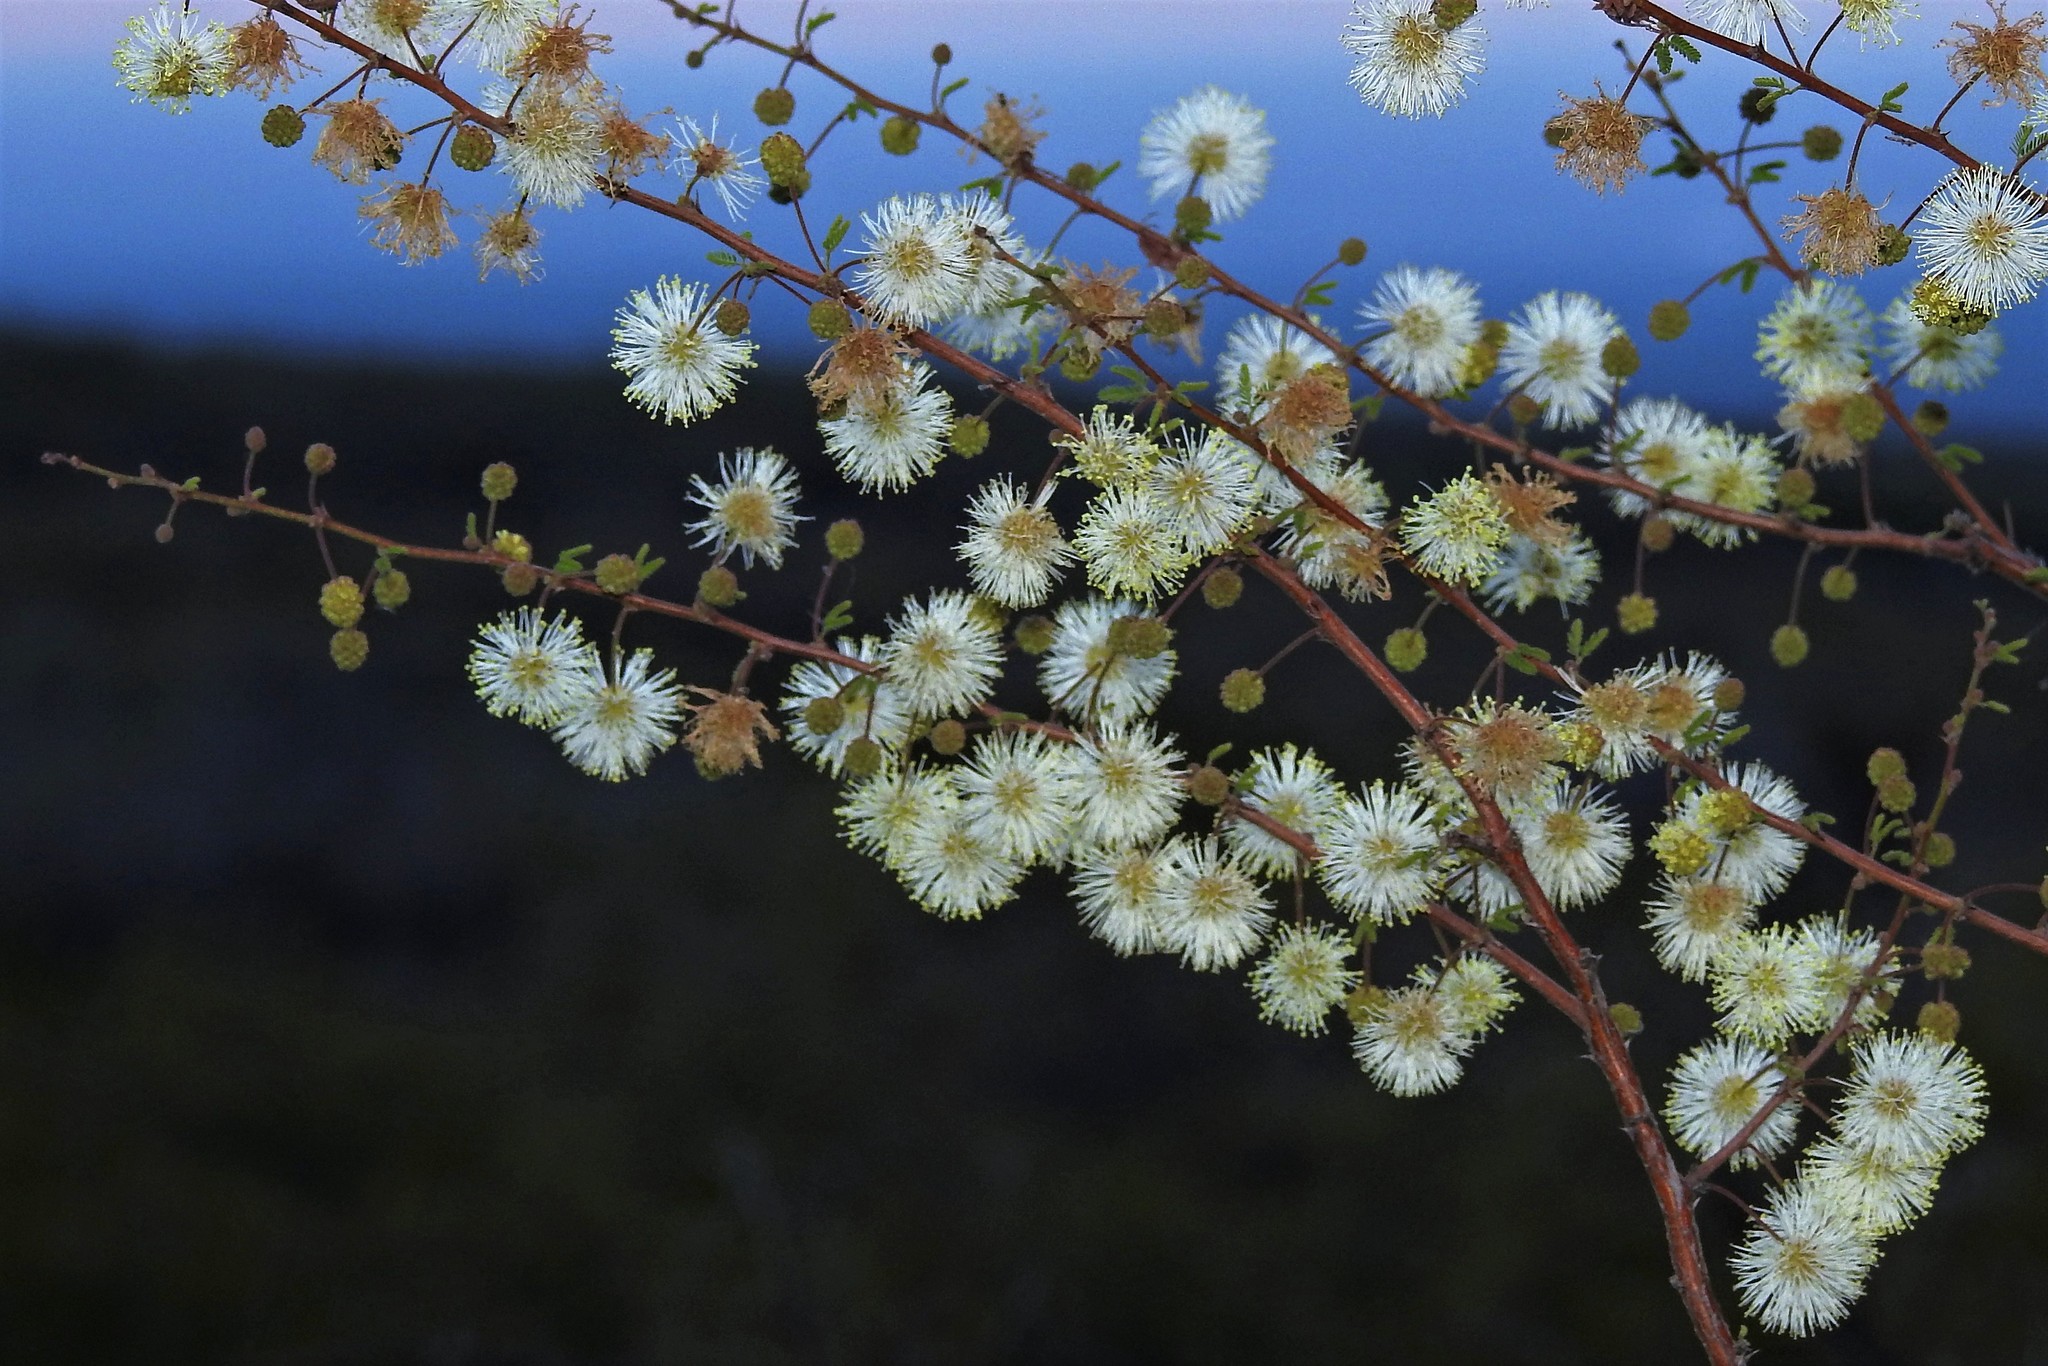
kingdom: Plantae
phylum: Tracheophyta
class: Magnoliopsida
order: Fabales
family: Fabaceae
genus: Mimosa
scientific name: Mimosa farinosa
